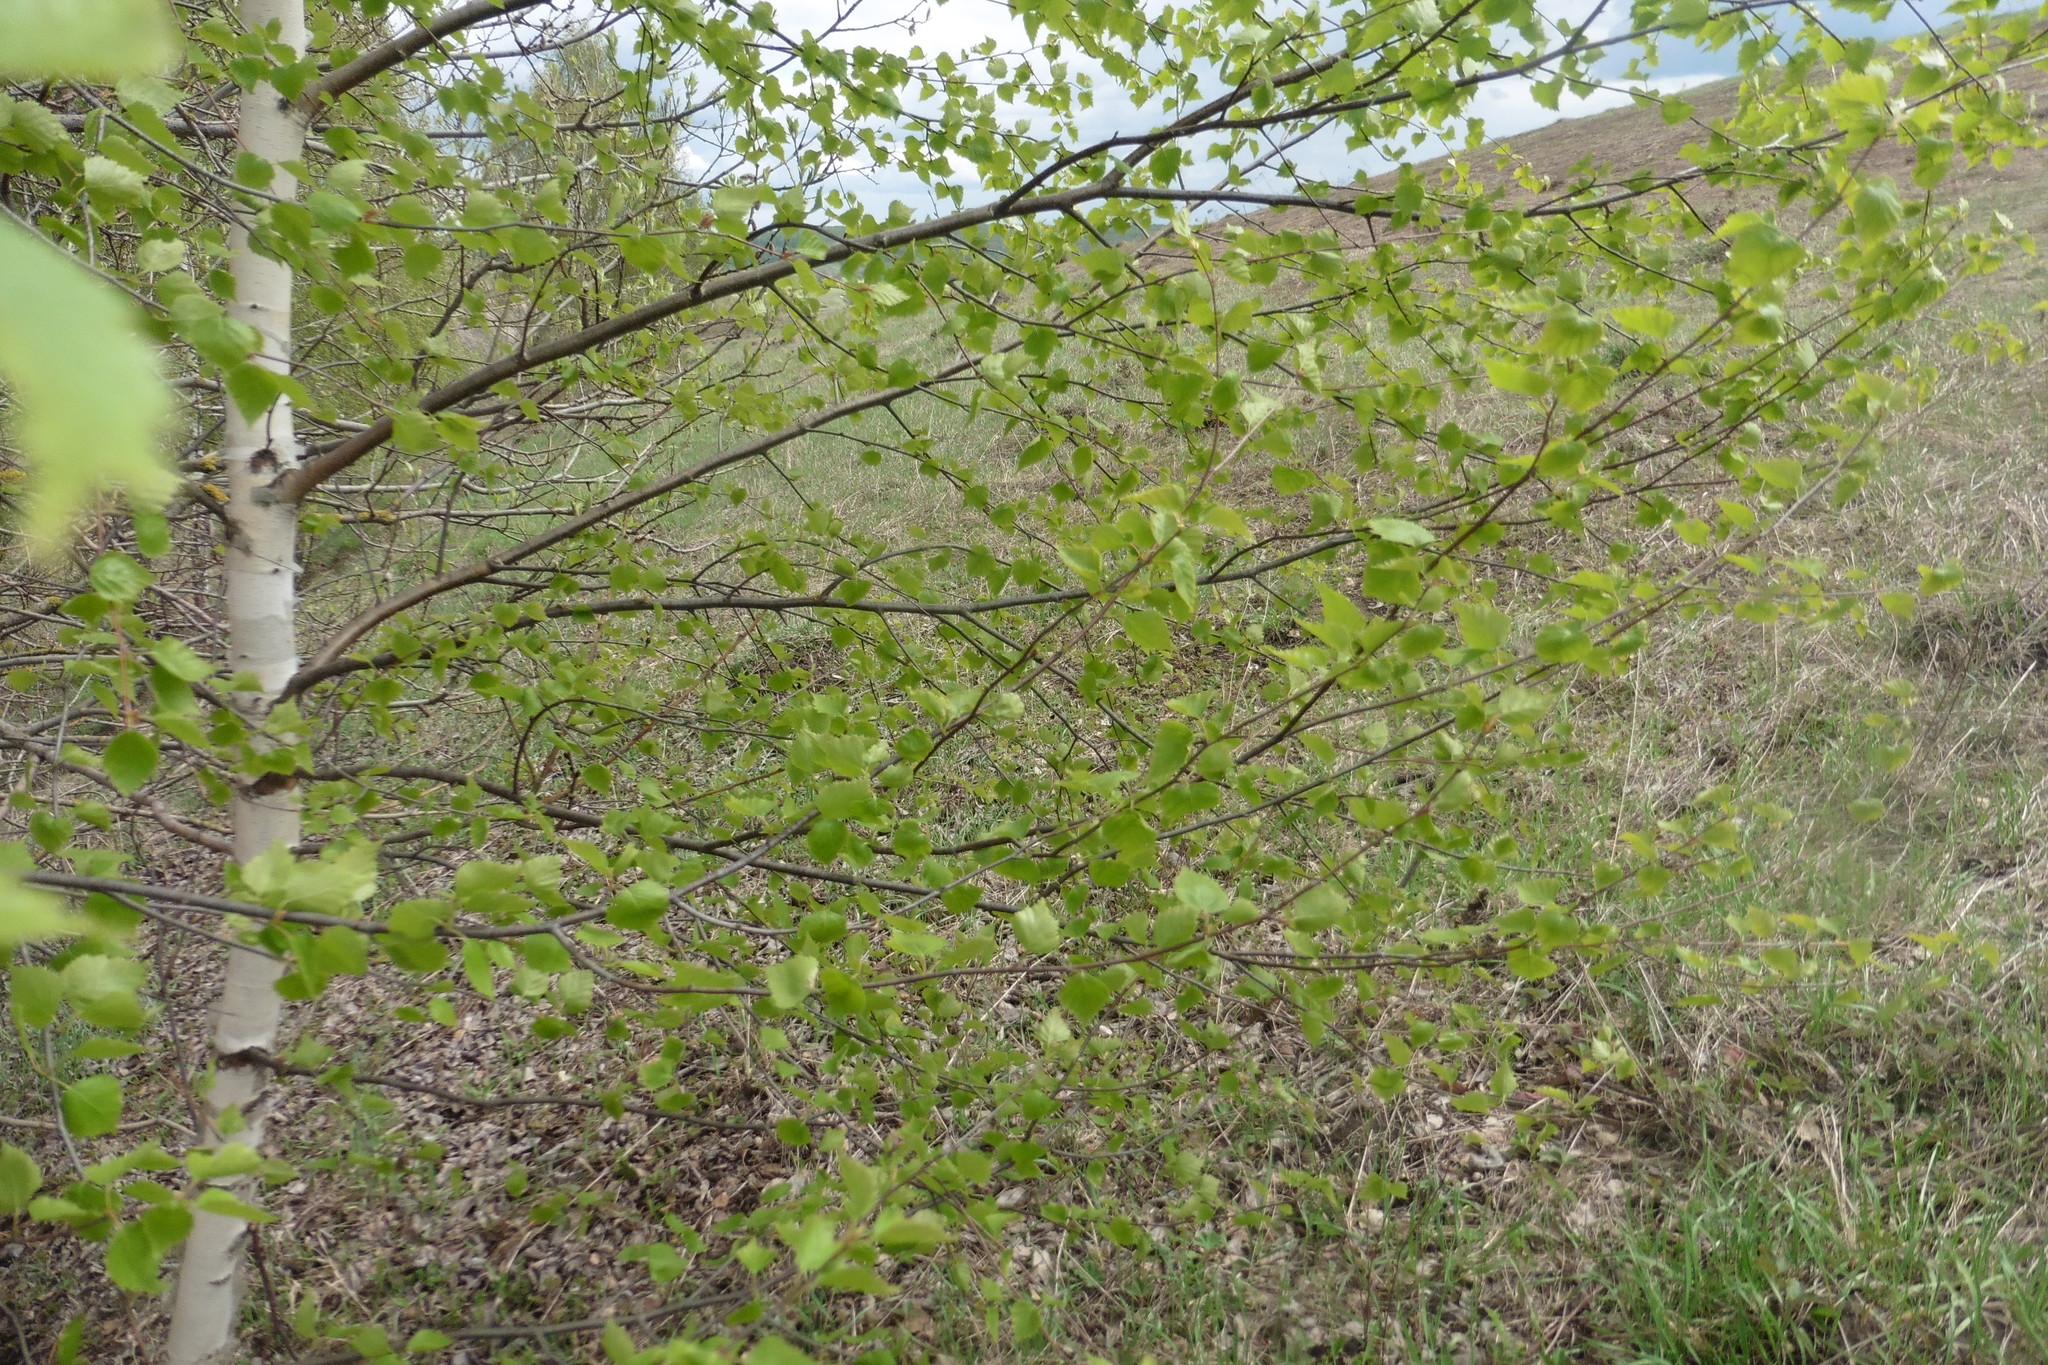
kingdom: Plantae
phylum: Tracheophyta
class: Magnoliopsida
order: Fagales
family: Betulaceae
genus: Betula
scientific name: Betula pendula
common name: Silver birch
